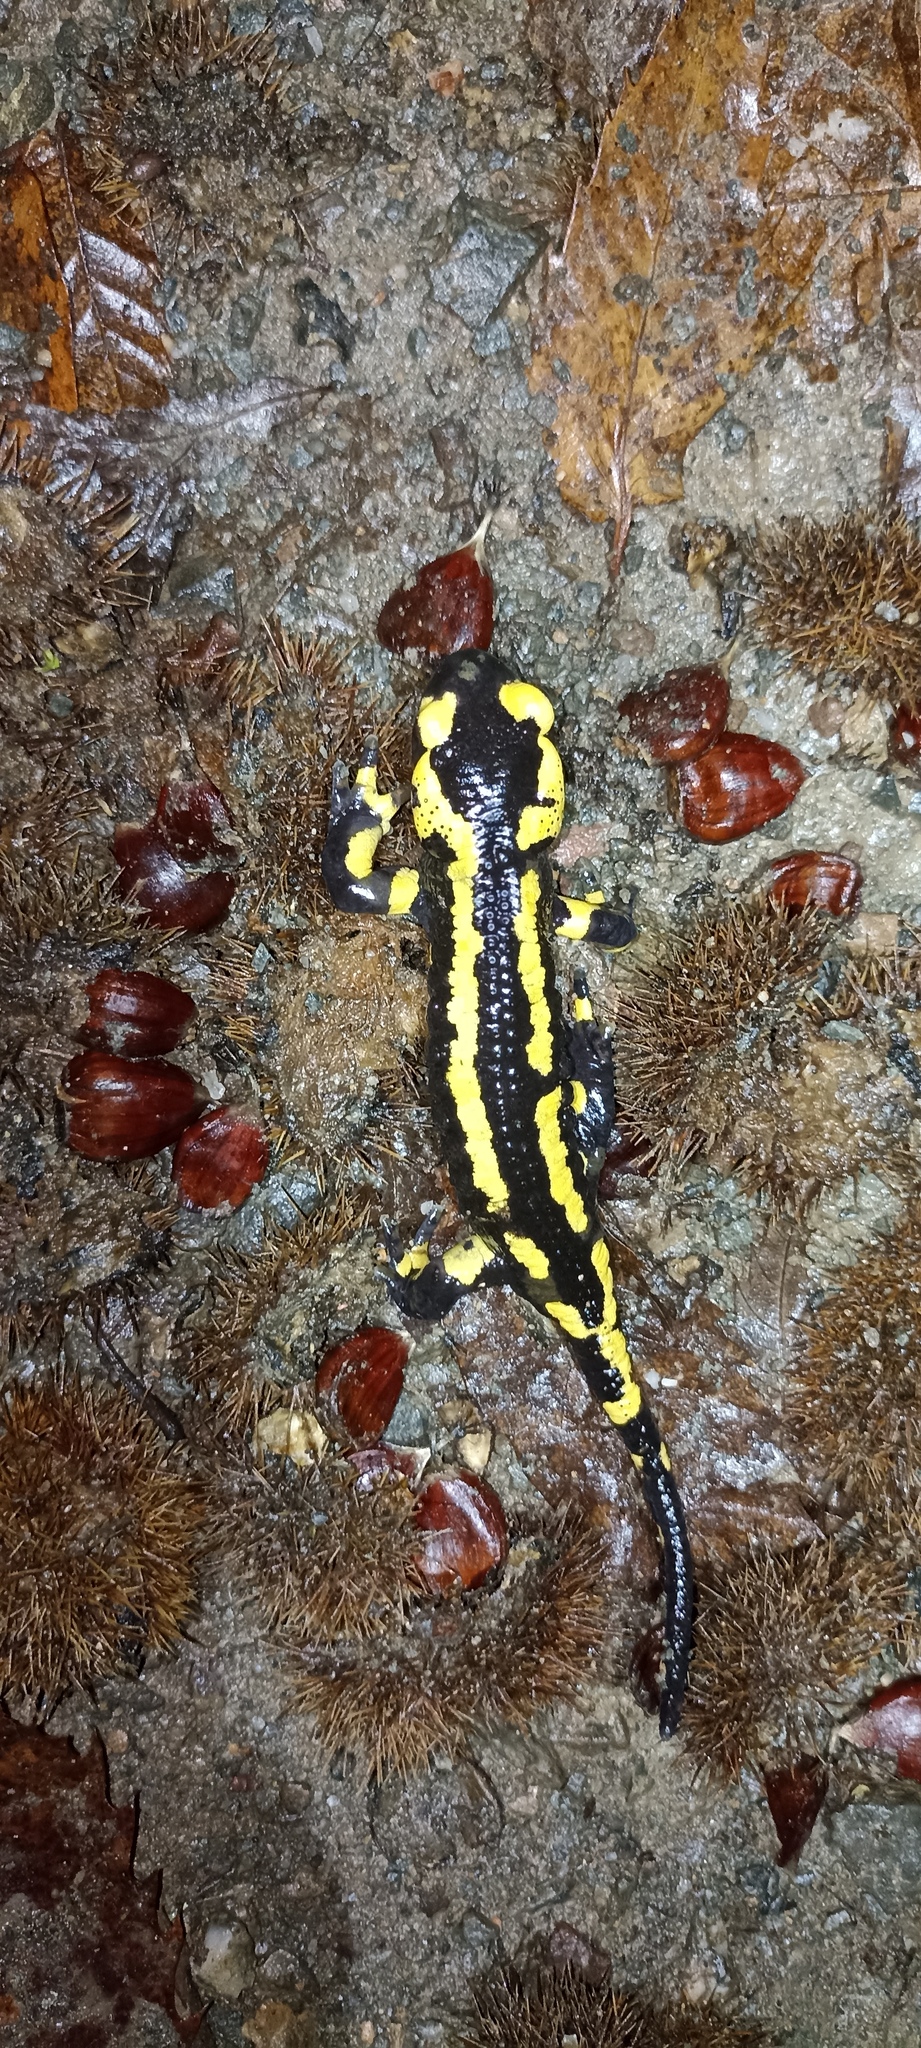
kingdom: Animalia
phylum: Chordata
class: Amphibia
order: Caudata
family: Salamandridae
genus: Salamandra
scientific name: Salamandra salamandra
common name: Fire salamander
